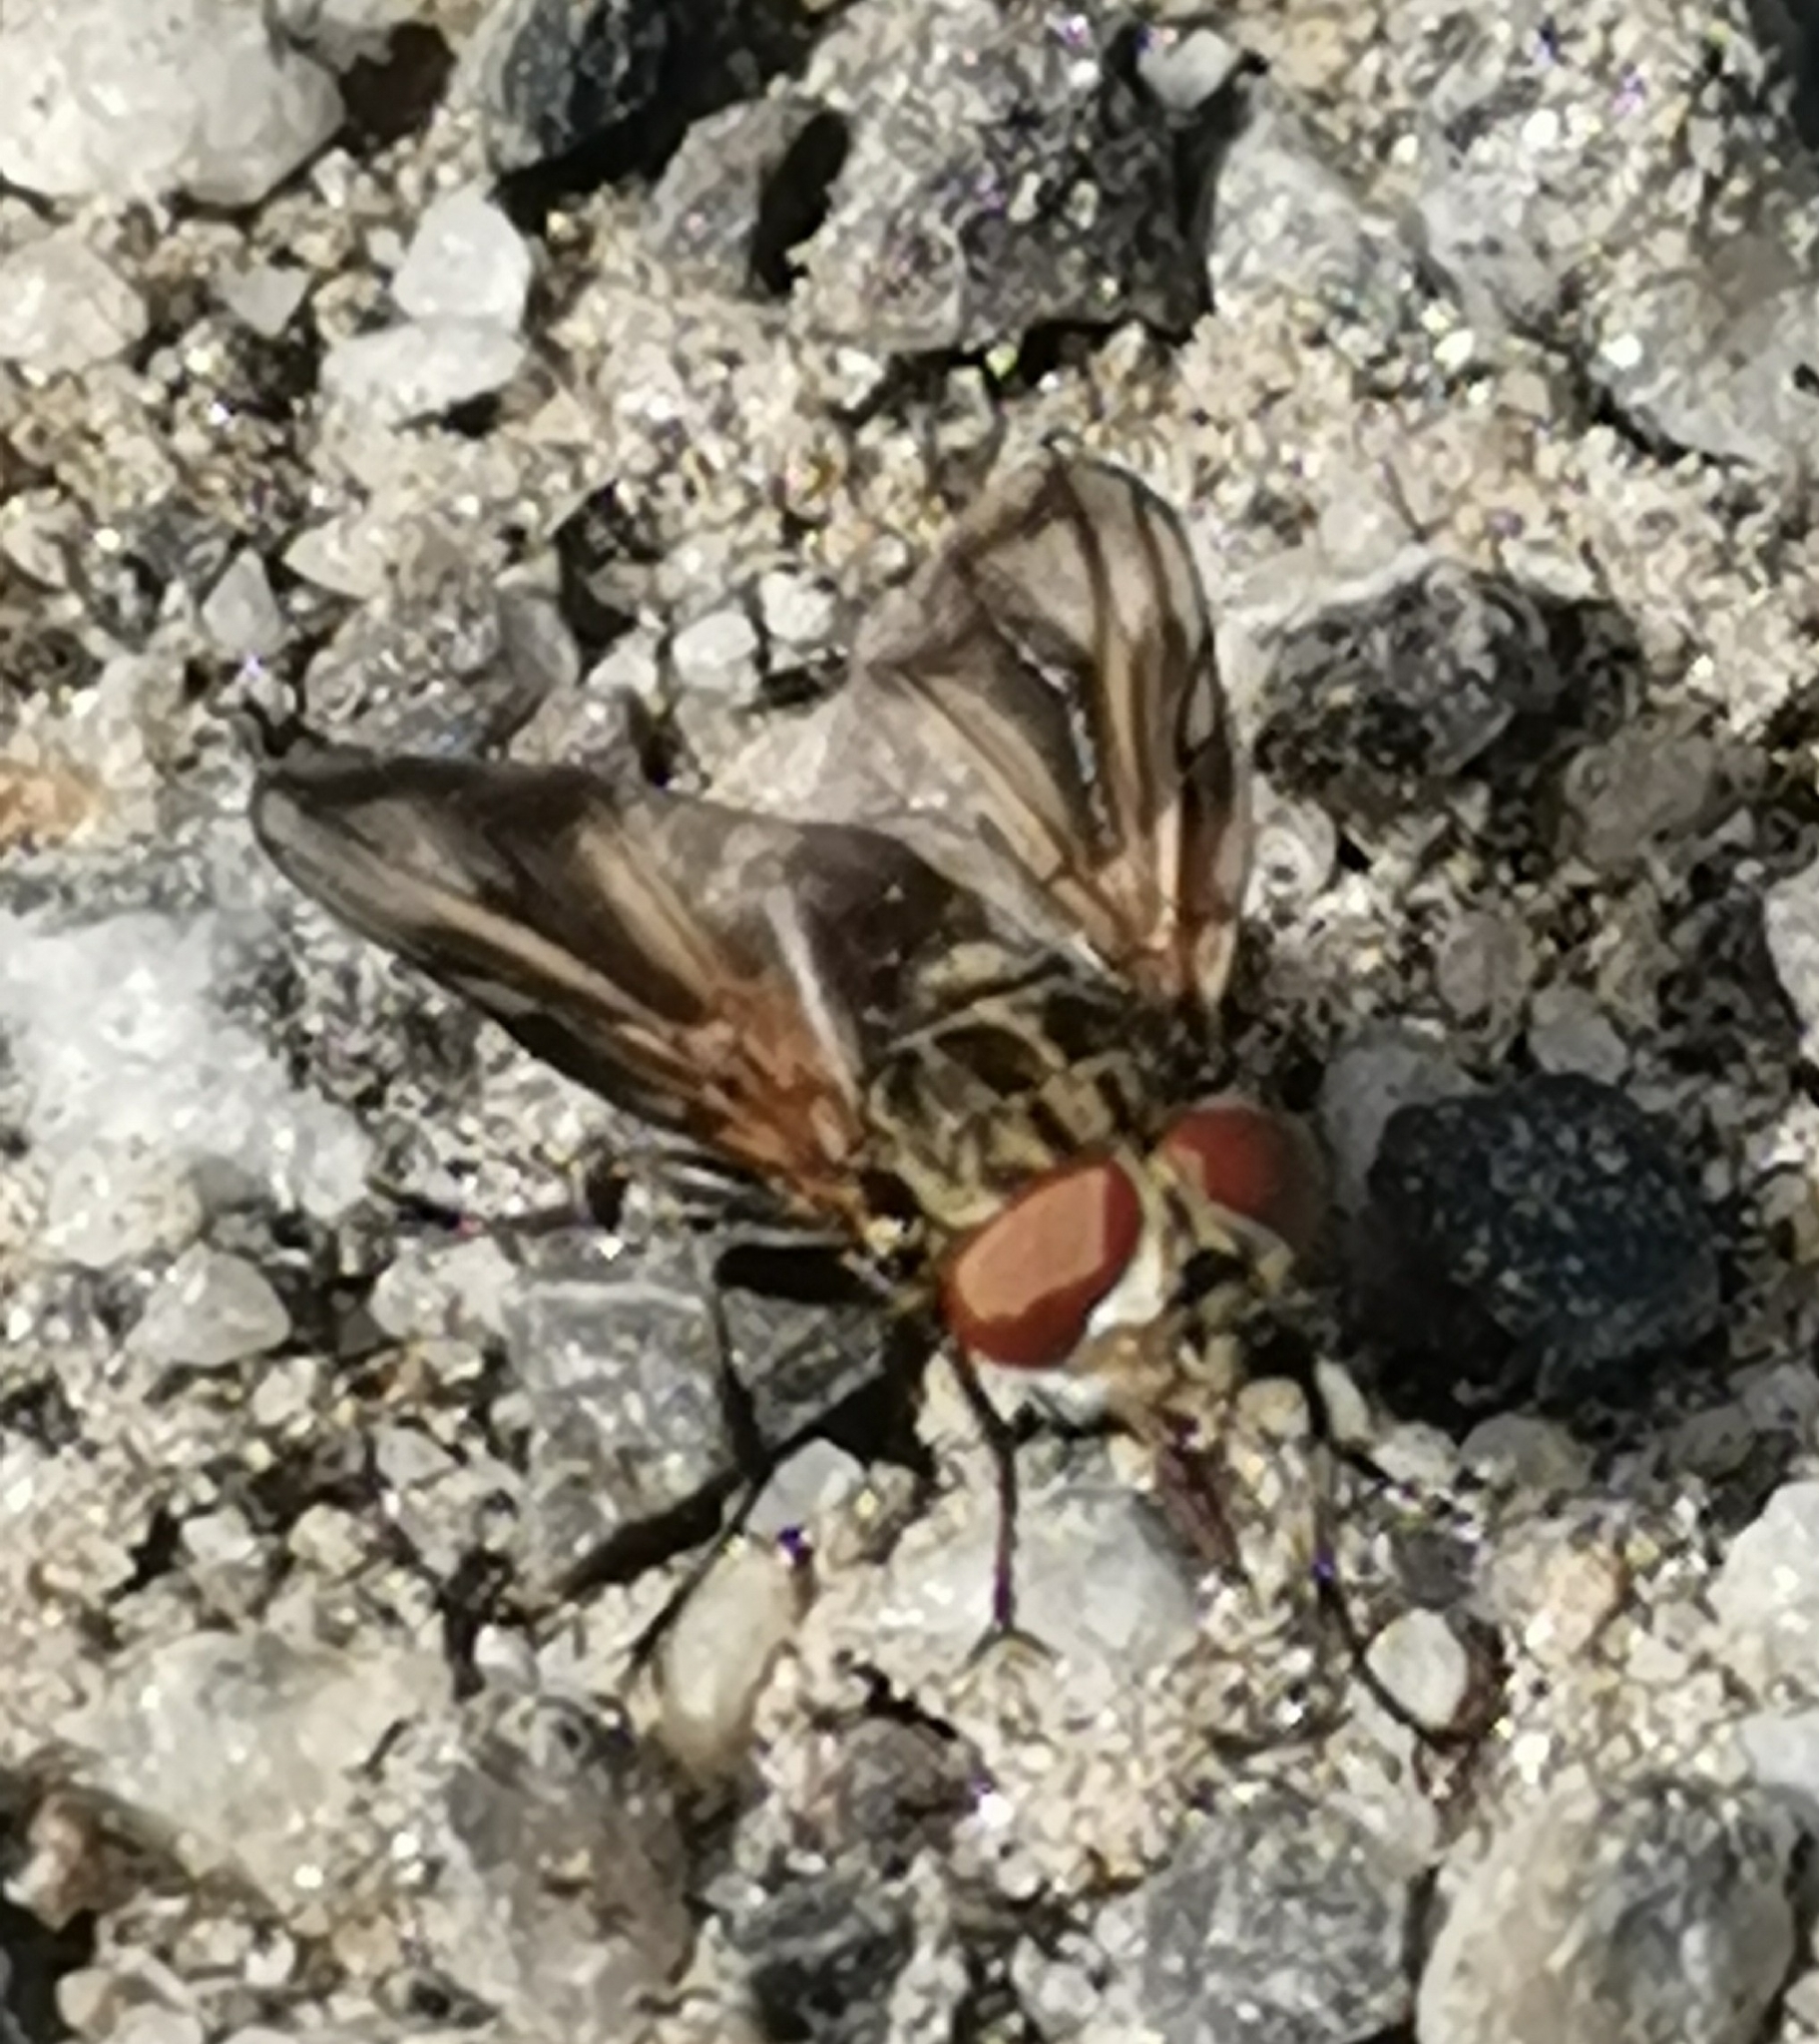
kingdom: Animalia
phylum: Arthropoda
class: Insecta
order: Diptera
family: Tachinidae
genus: Phasia
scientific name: Phasia subcoleoptrata
